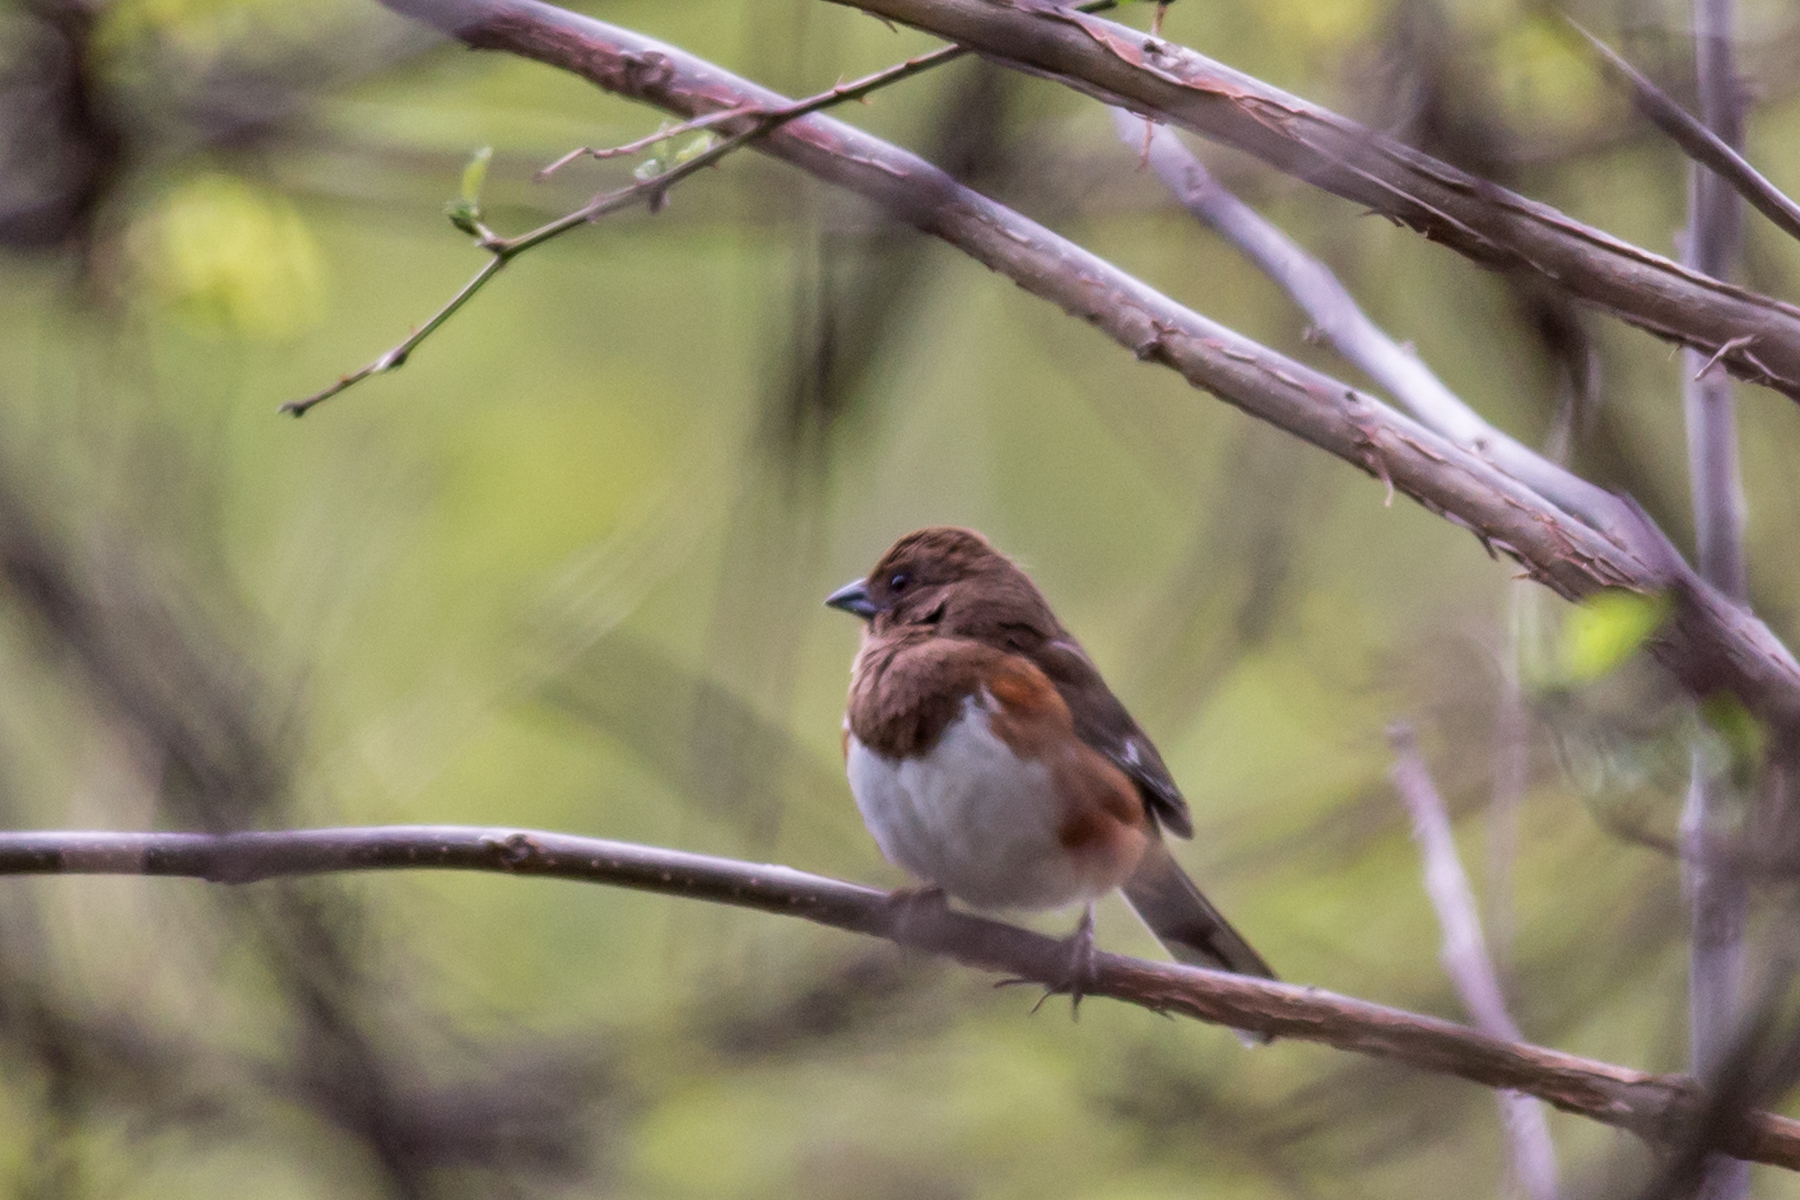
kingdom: Animalia
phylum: Chordata
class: Aves
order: Passeriformes
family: Passerellidae
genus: Pipilo
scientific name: Pipilo erythrophthalmus
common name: Eastern towhee
